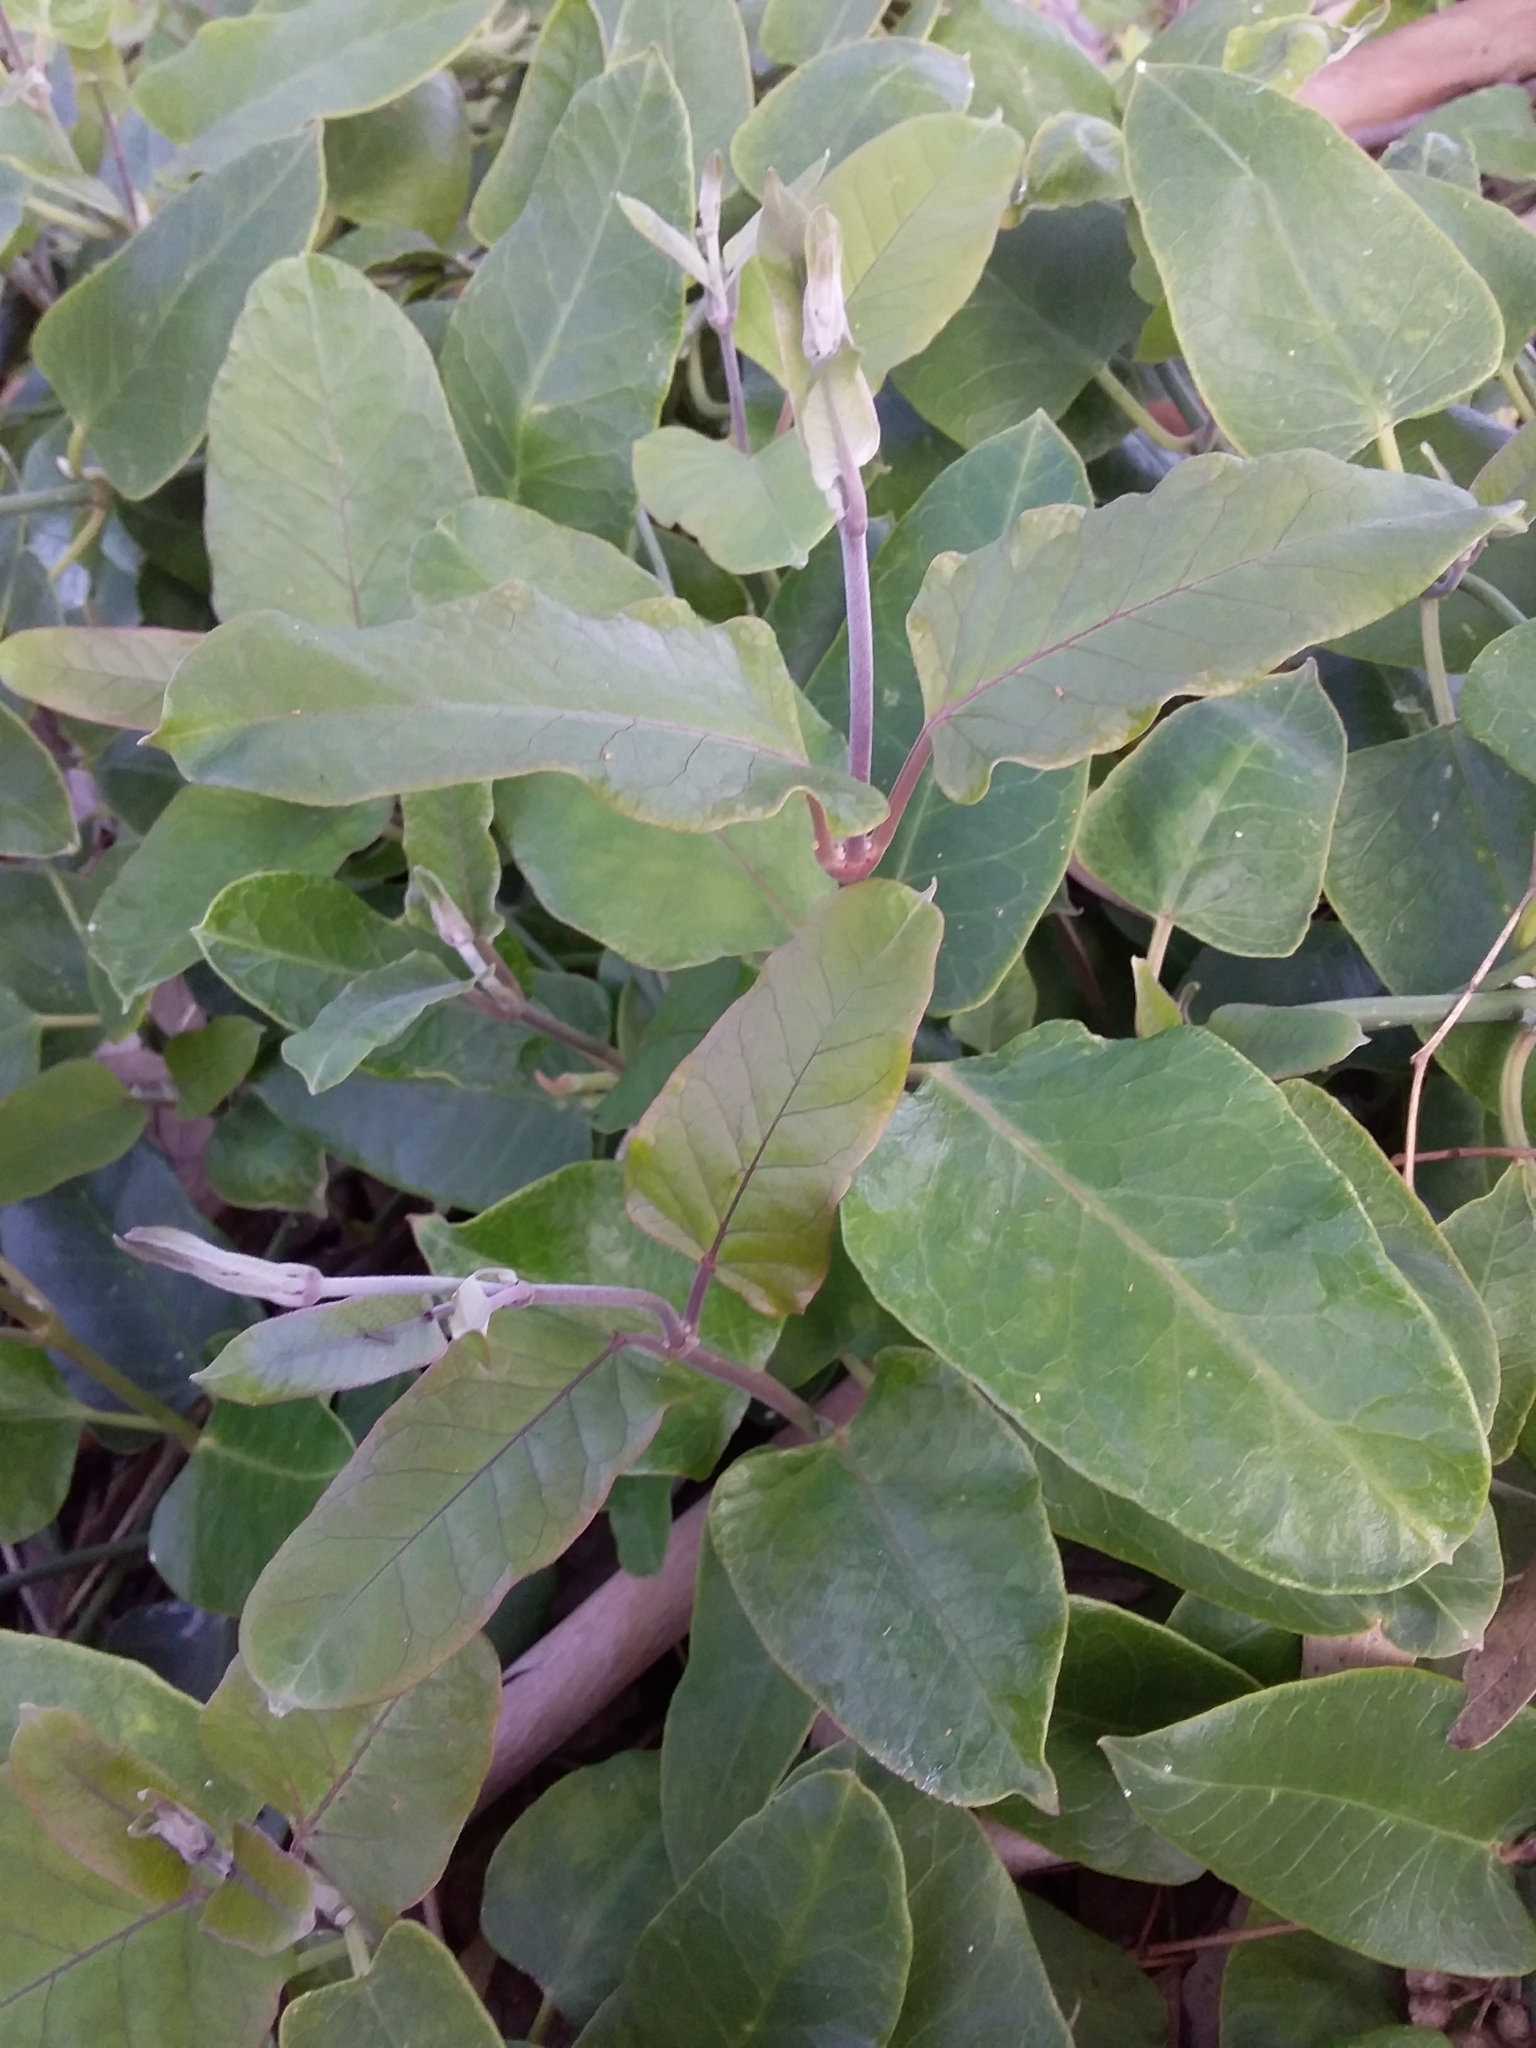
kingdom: Plantae
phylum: Tracheophyta
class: Magnoliopsida
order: Gentianales
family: Apocynaceae
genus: Araujia
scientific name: Araujia sericifera
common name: White bladderflower
